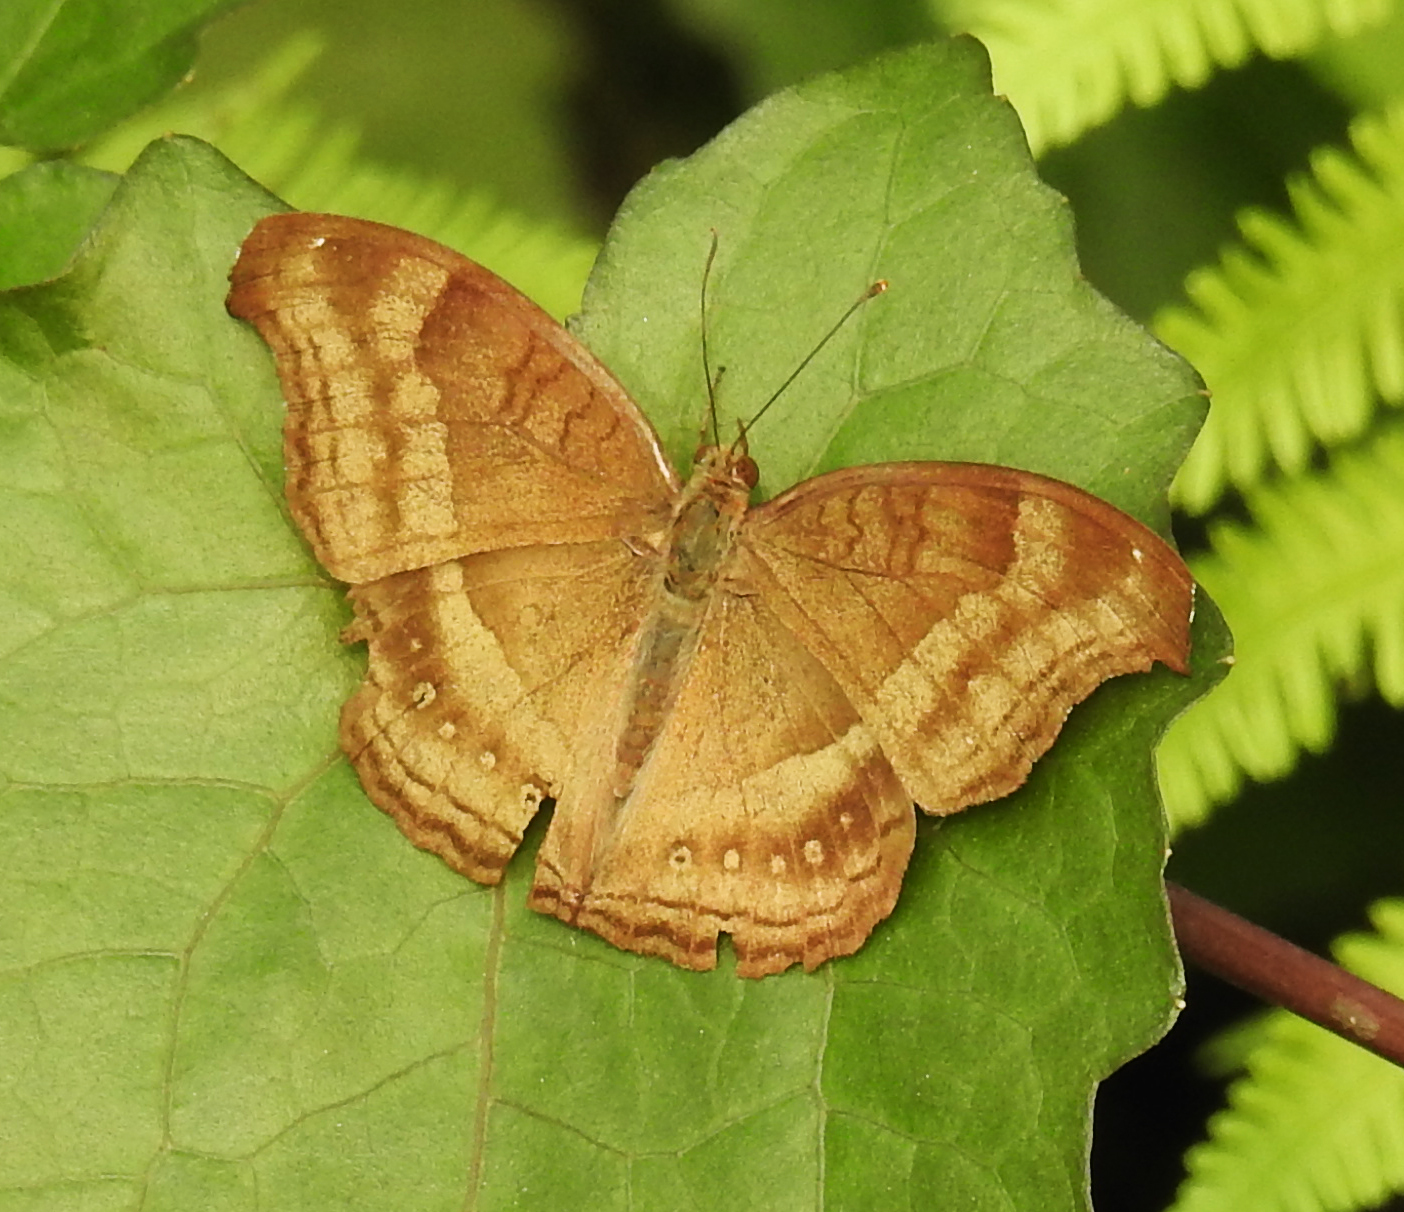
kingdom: Animalia
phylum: Arthropoda
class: Insecta
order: Lepidoptera
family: Nymphalidae
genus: Junonia
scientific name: Junonia iphita
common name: Chocolate pansy
